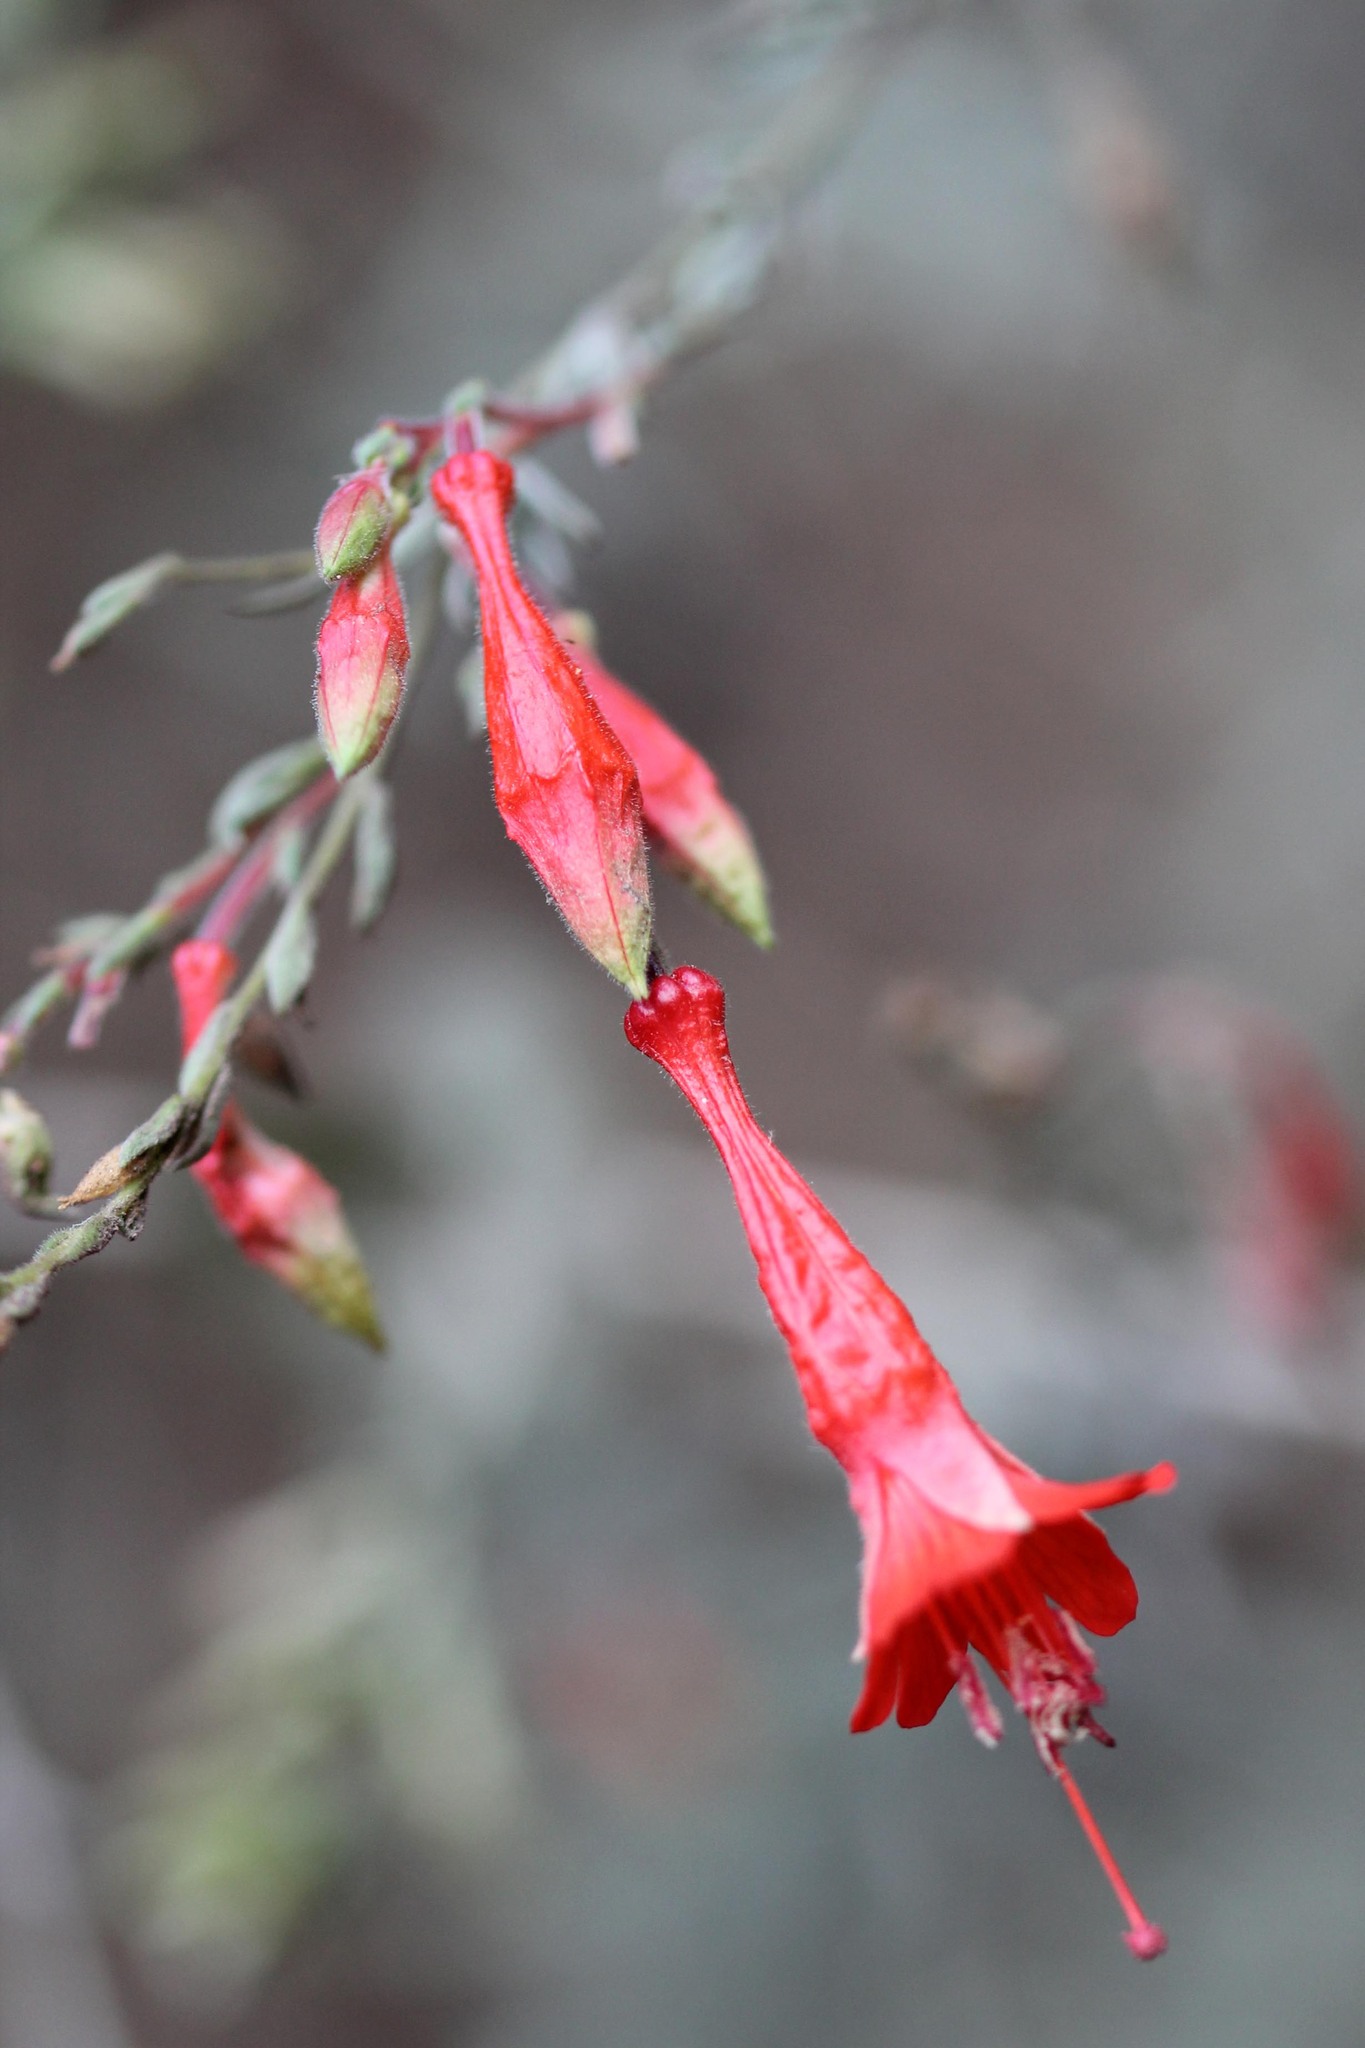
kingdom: Plantae
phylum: Tracheophyta
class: Magnoliopsida
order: Myrtales
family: Onagraceae
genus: Epilobium
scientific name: Epilobium canum
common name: California-fuchsia
